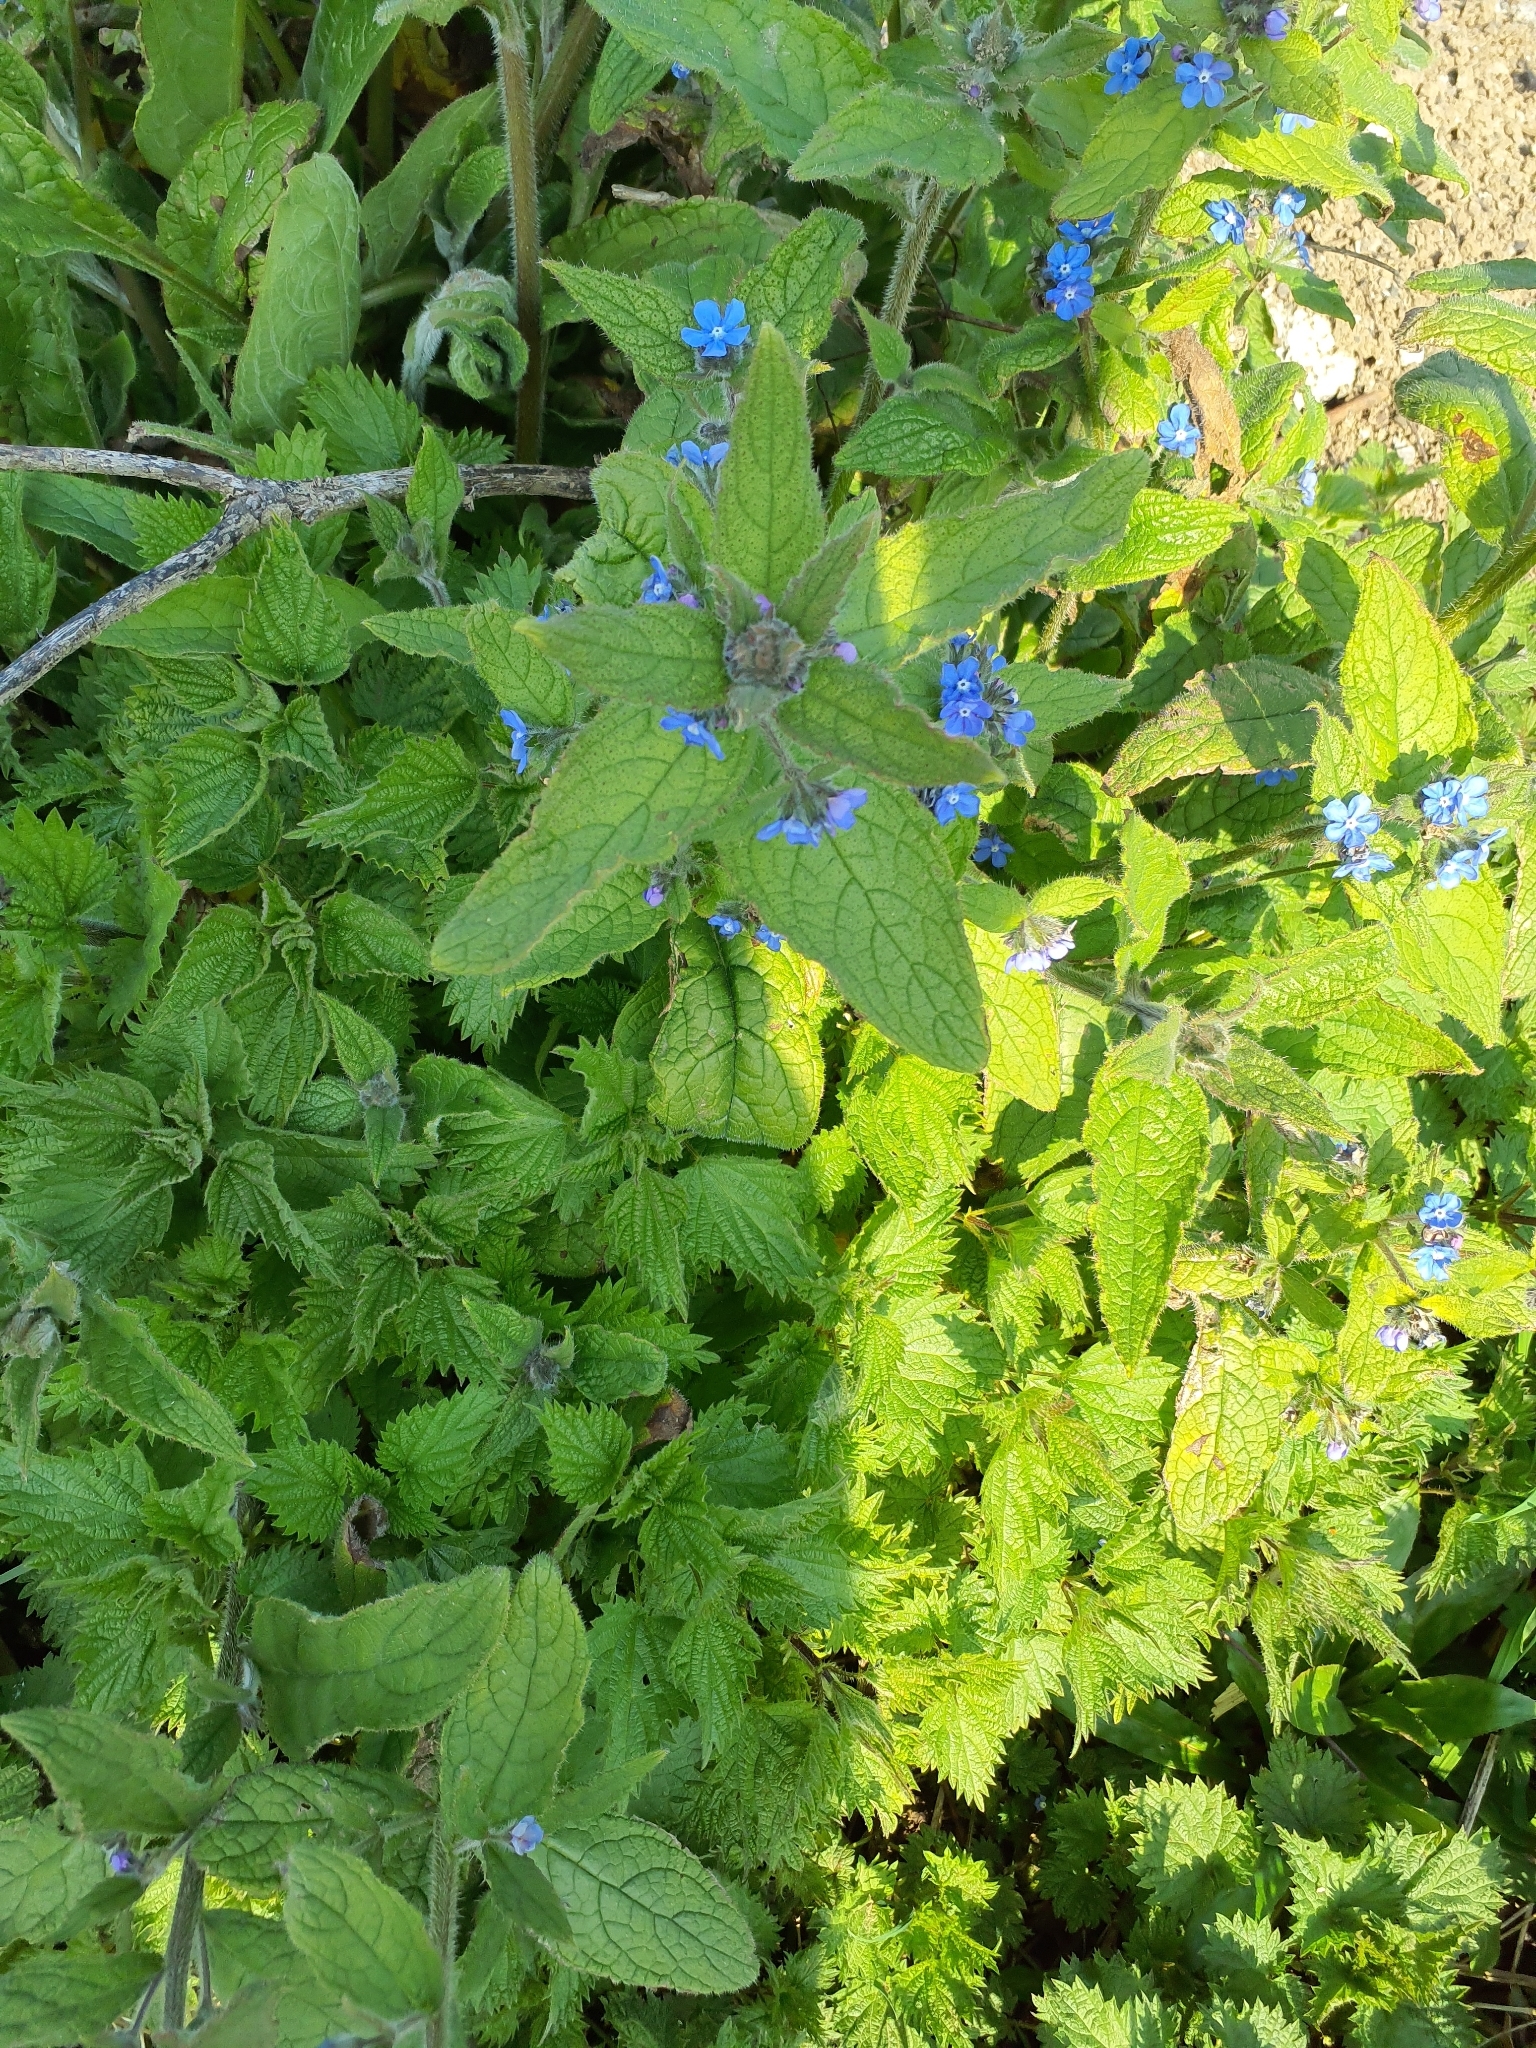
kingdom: Plantae
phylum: Tracheophyta
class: Magnoliopsida
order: Boraginales
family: Boraginaceae
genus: Pentaglottis
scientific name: Pentaglottis sempervirens
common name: Green alkanet
